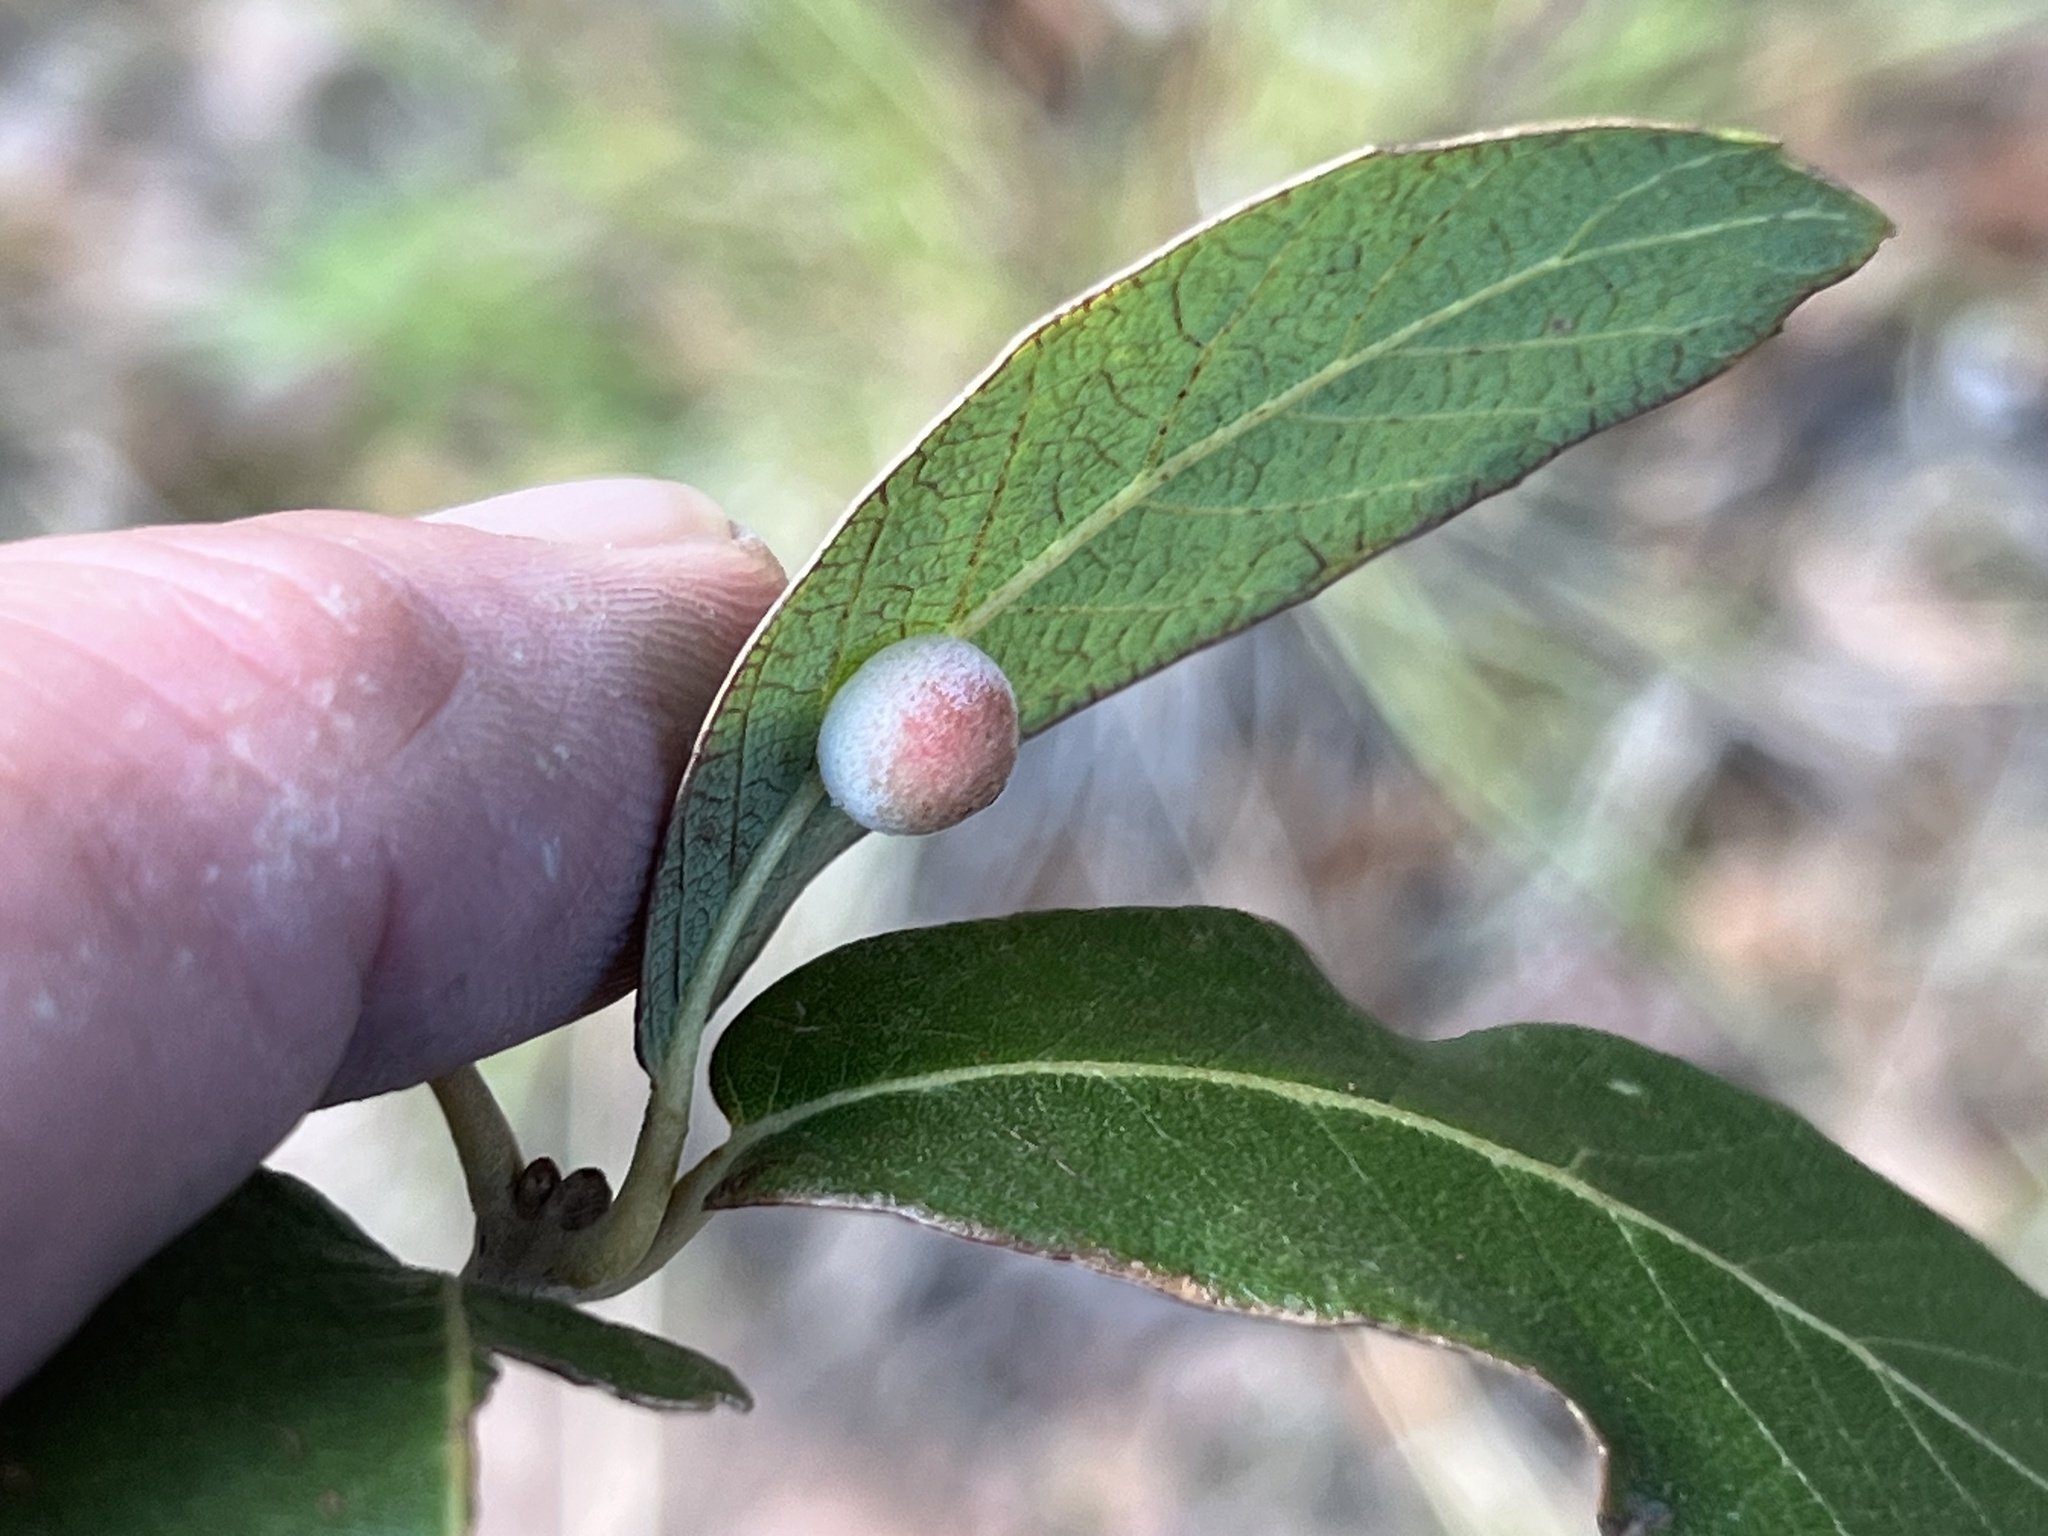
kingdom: Animalia
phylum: Arthropoda
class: Insecta
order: Hymenoptera
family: Cynipidae
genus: Cynips
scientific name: Cynips
